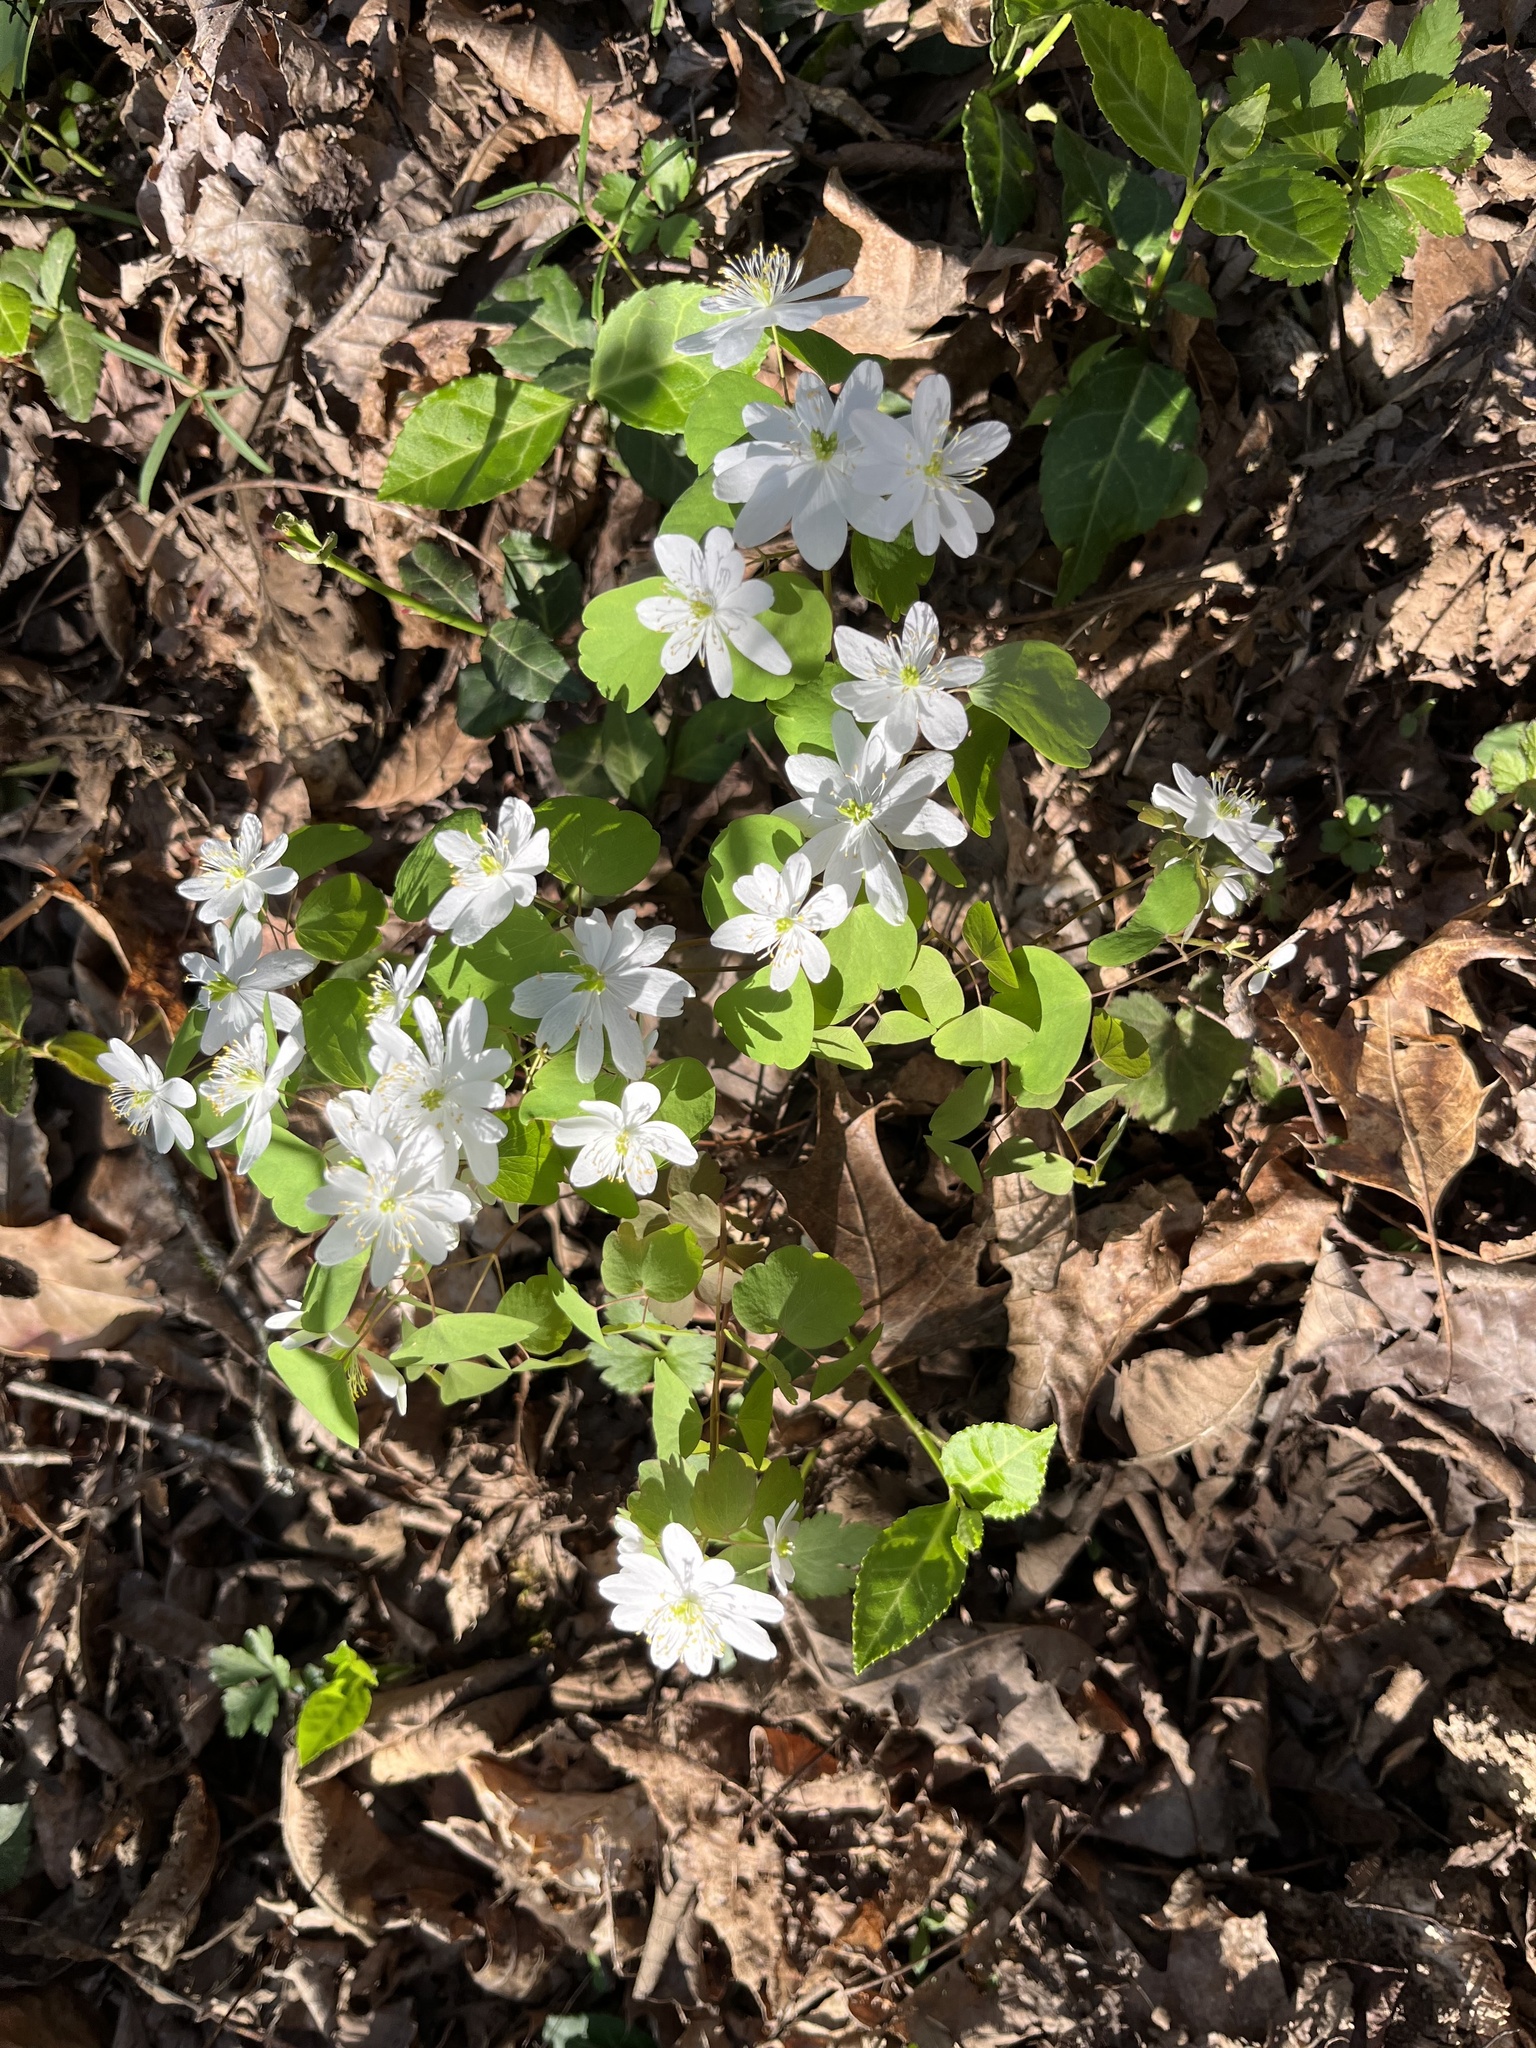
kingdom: Plantae
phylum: Tracheophyta
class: Magnoliopsida
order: Ranunculales
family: Ranunculaceae
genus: Thalictrum
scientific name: Thalictrum thalictroides
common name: Rue-anemone
